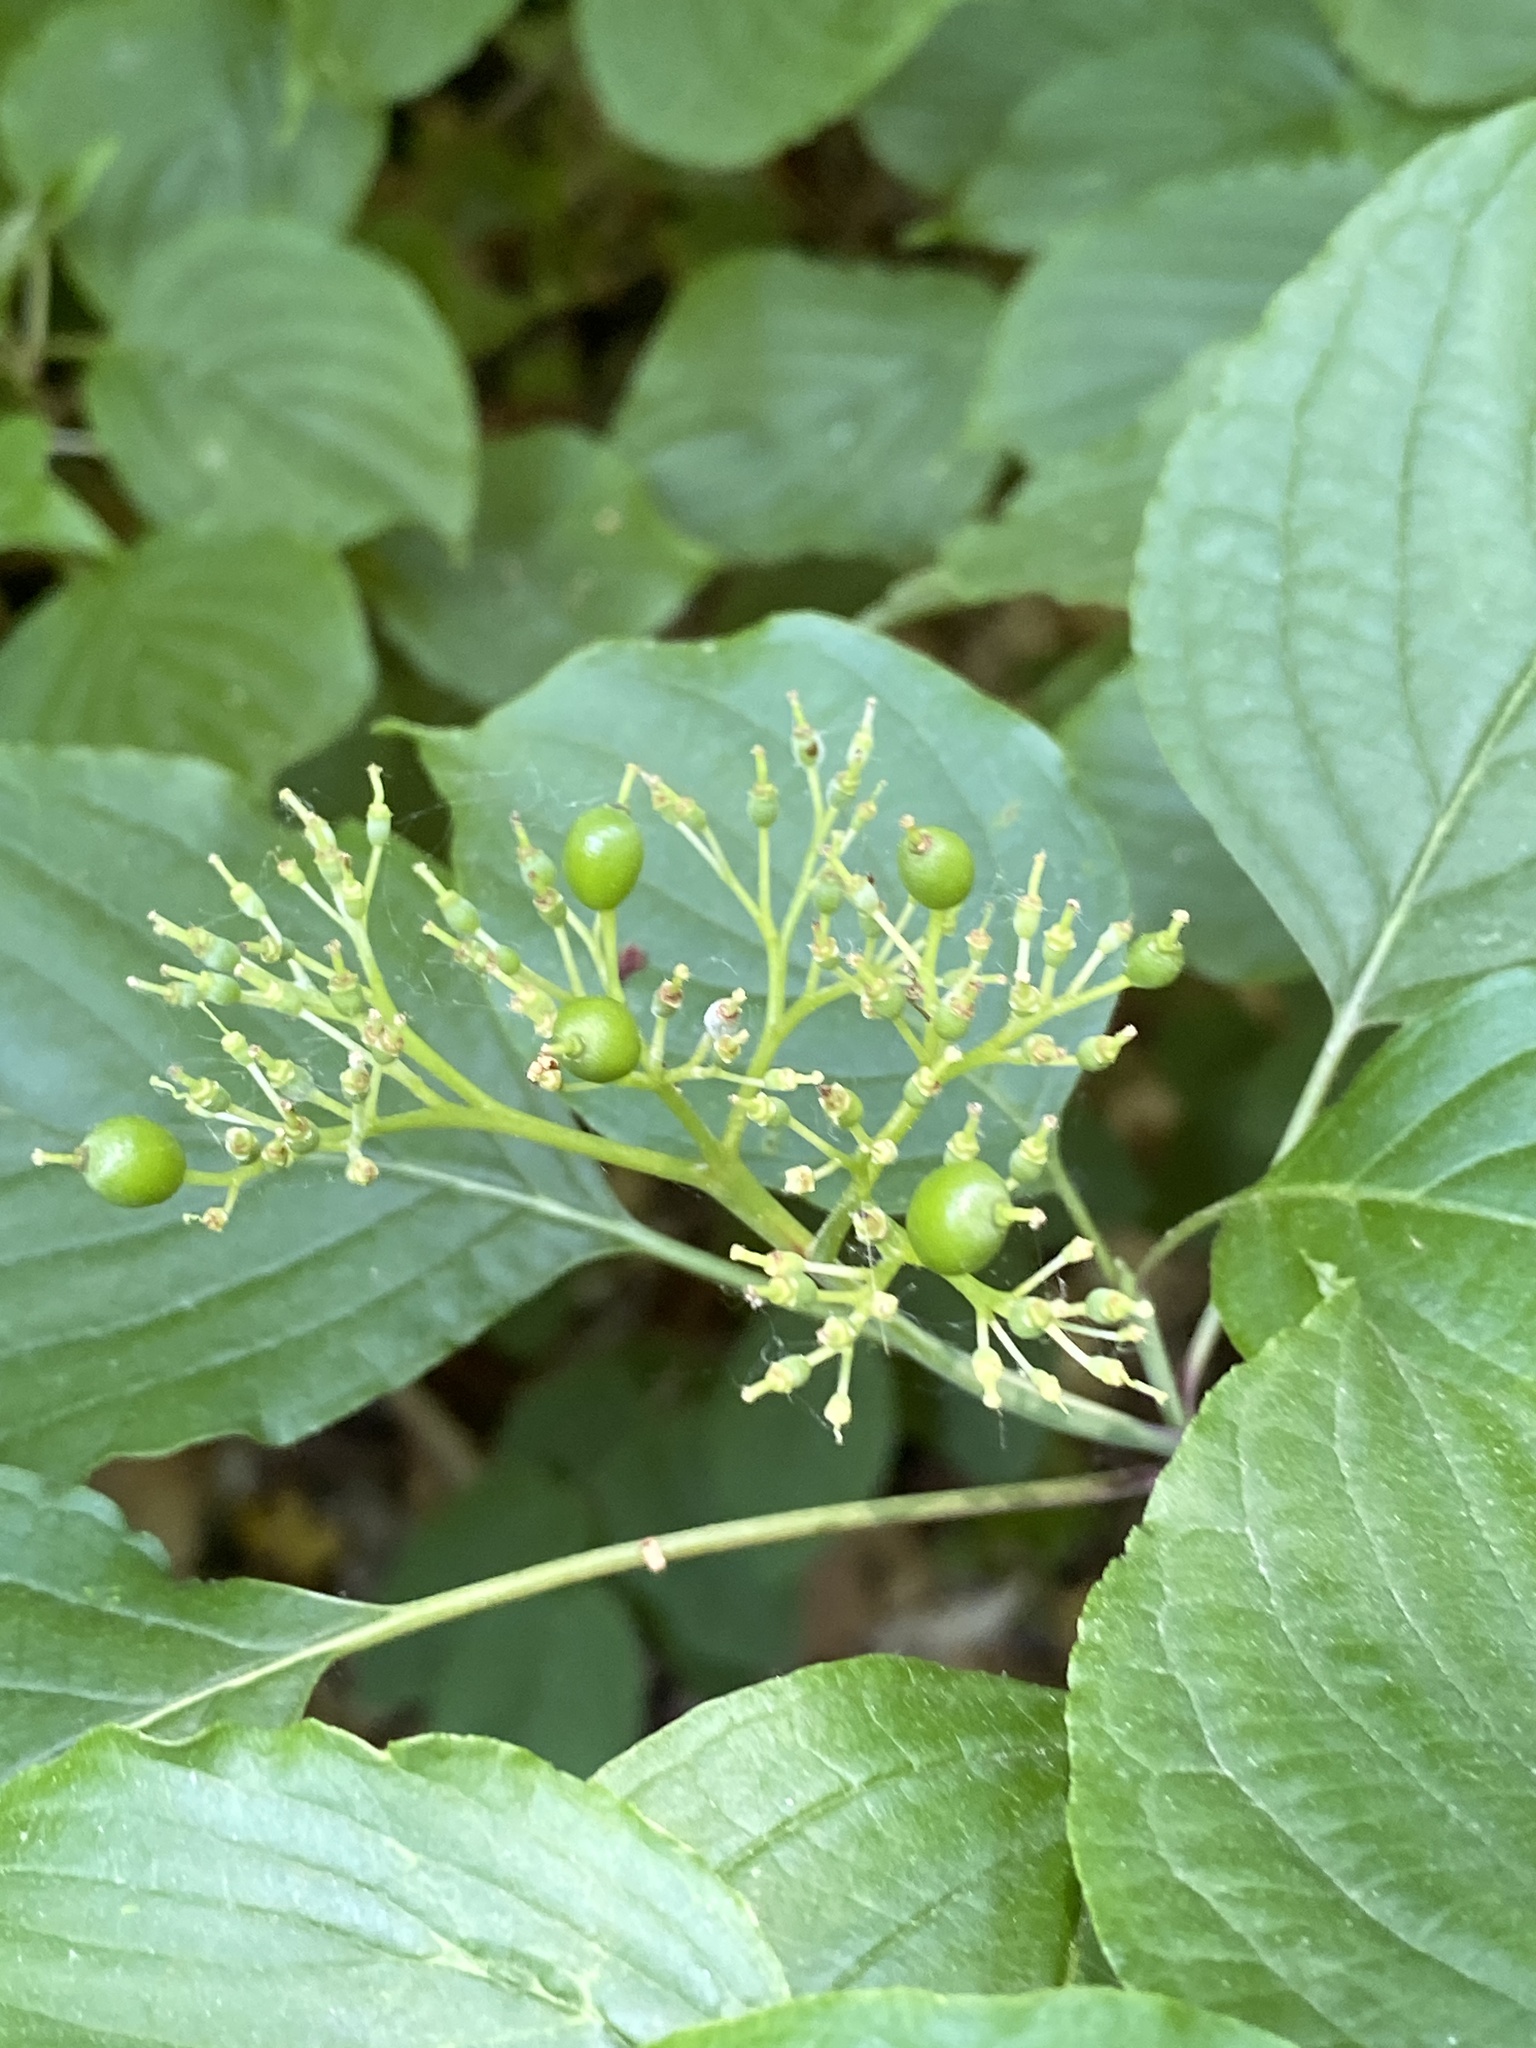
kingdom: Plantae
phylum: Tracheophyta
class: Magnoliopsida
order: Cornales
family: Cornaceae
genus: Cornus
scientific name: Cornus alternifolia
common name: Pagoda dogwood
